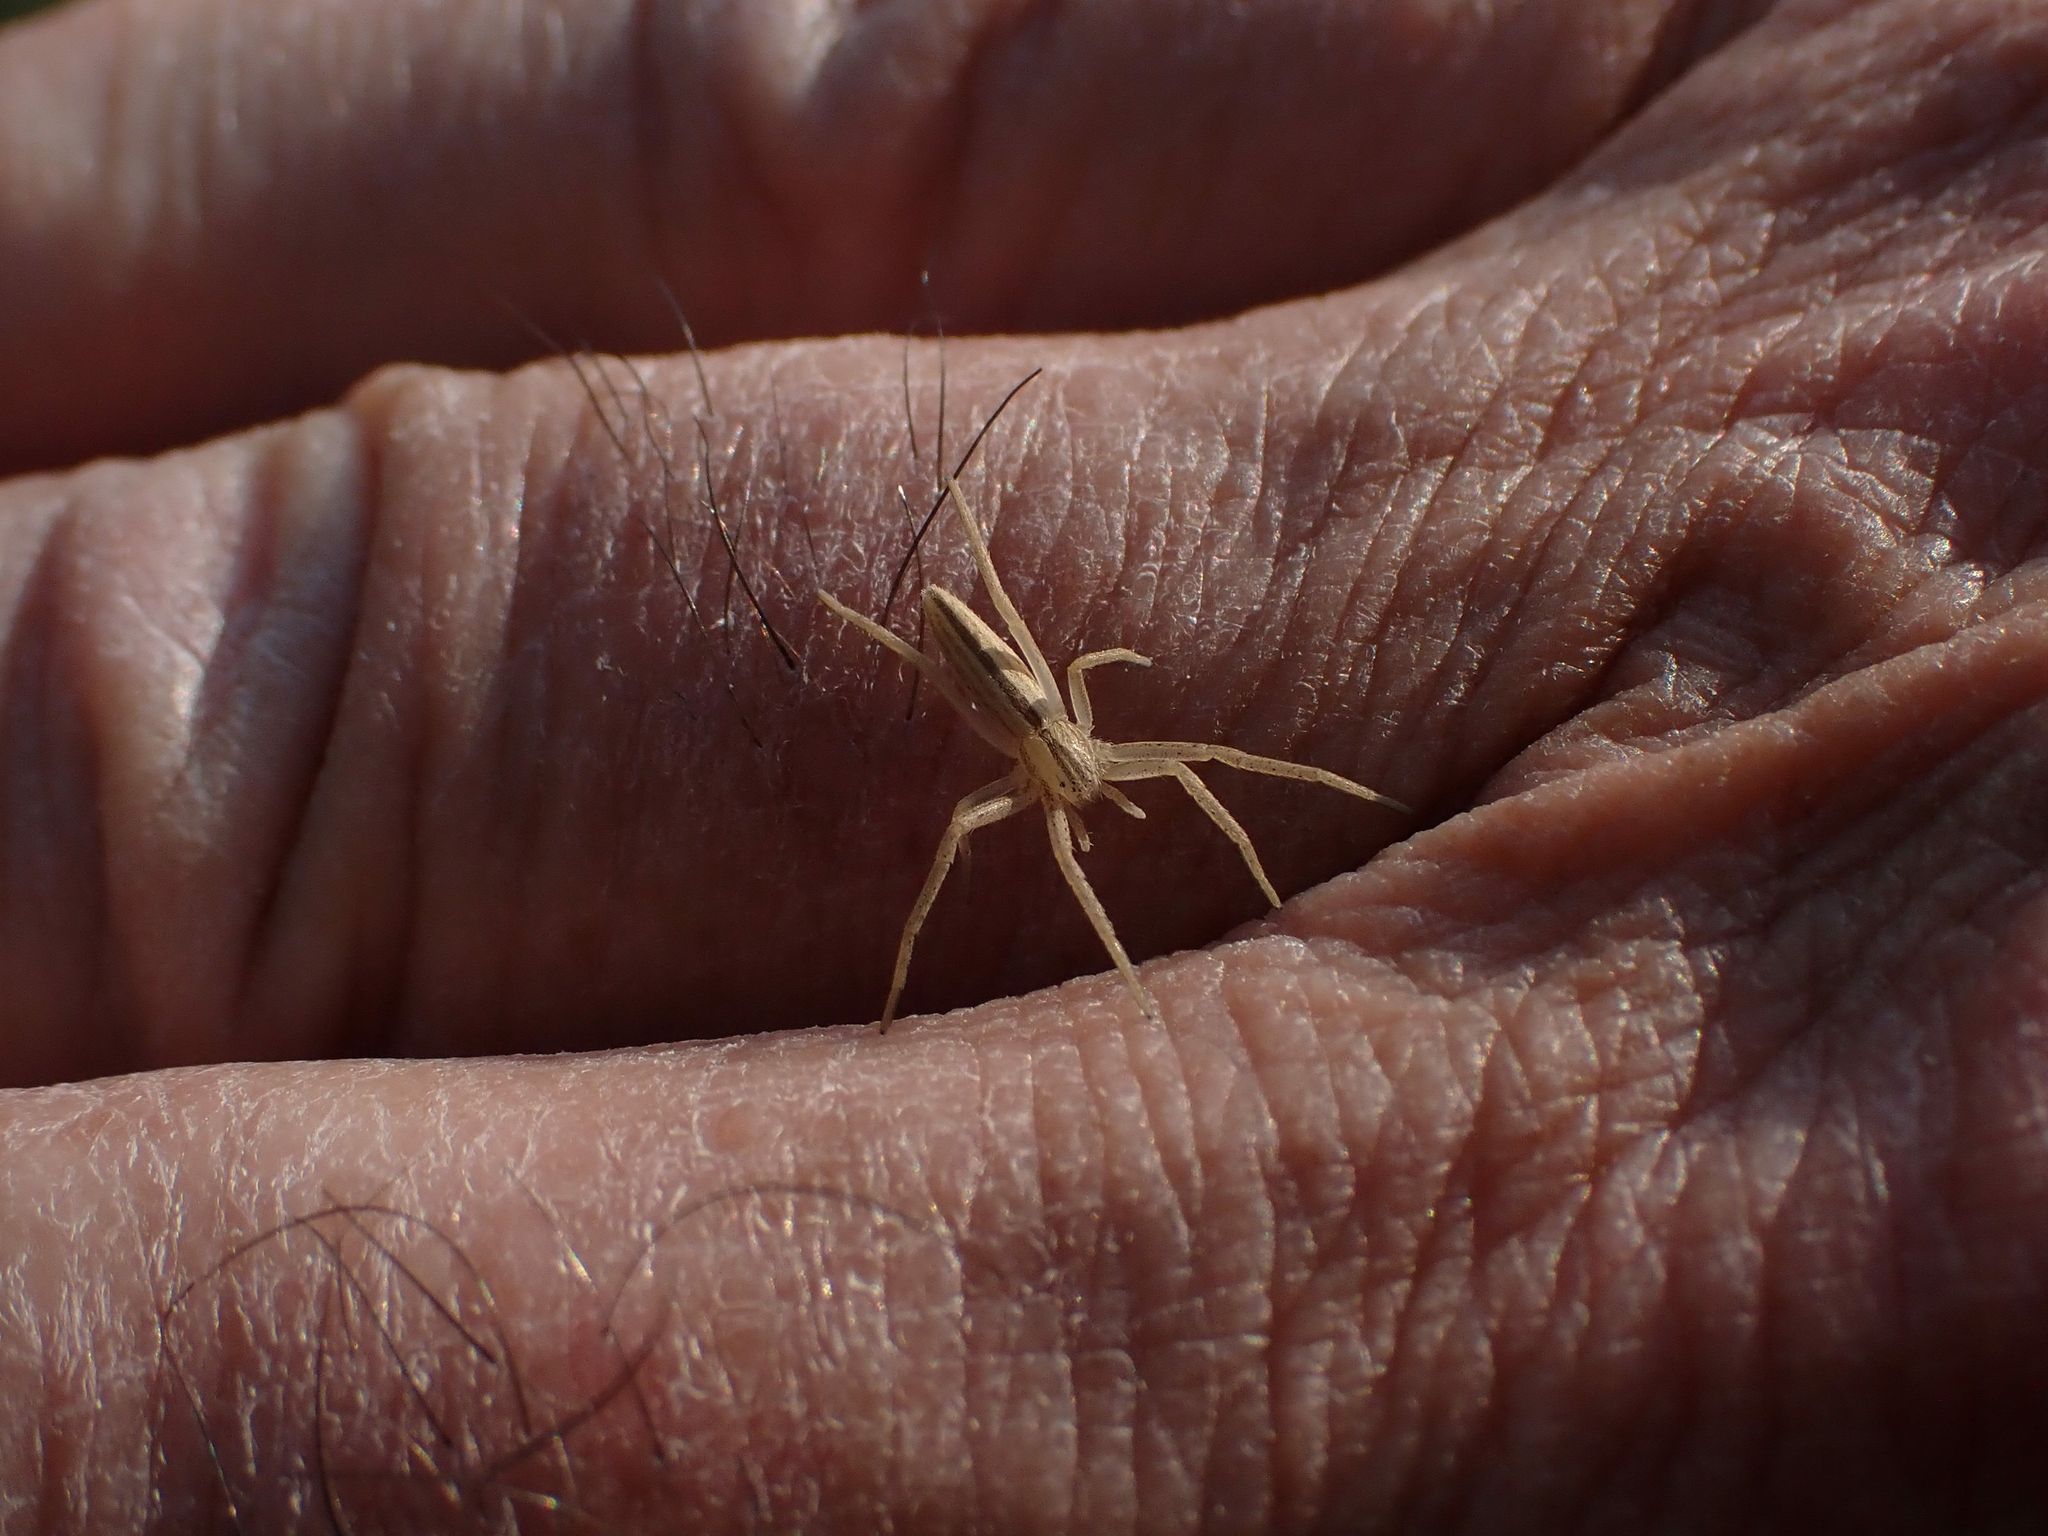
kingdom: Animalia
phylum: Arthropoda
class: Arachnida
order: Araneae
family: Philodromidae
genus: Tibellus
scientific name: Tibellus oblongus
